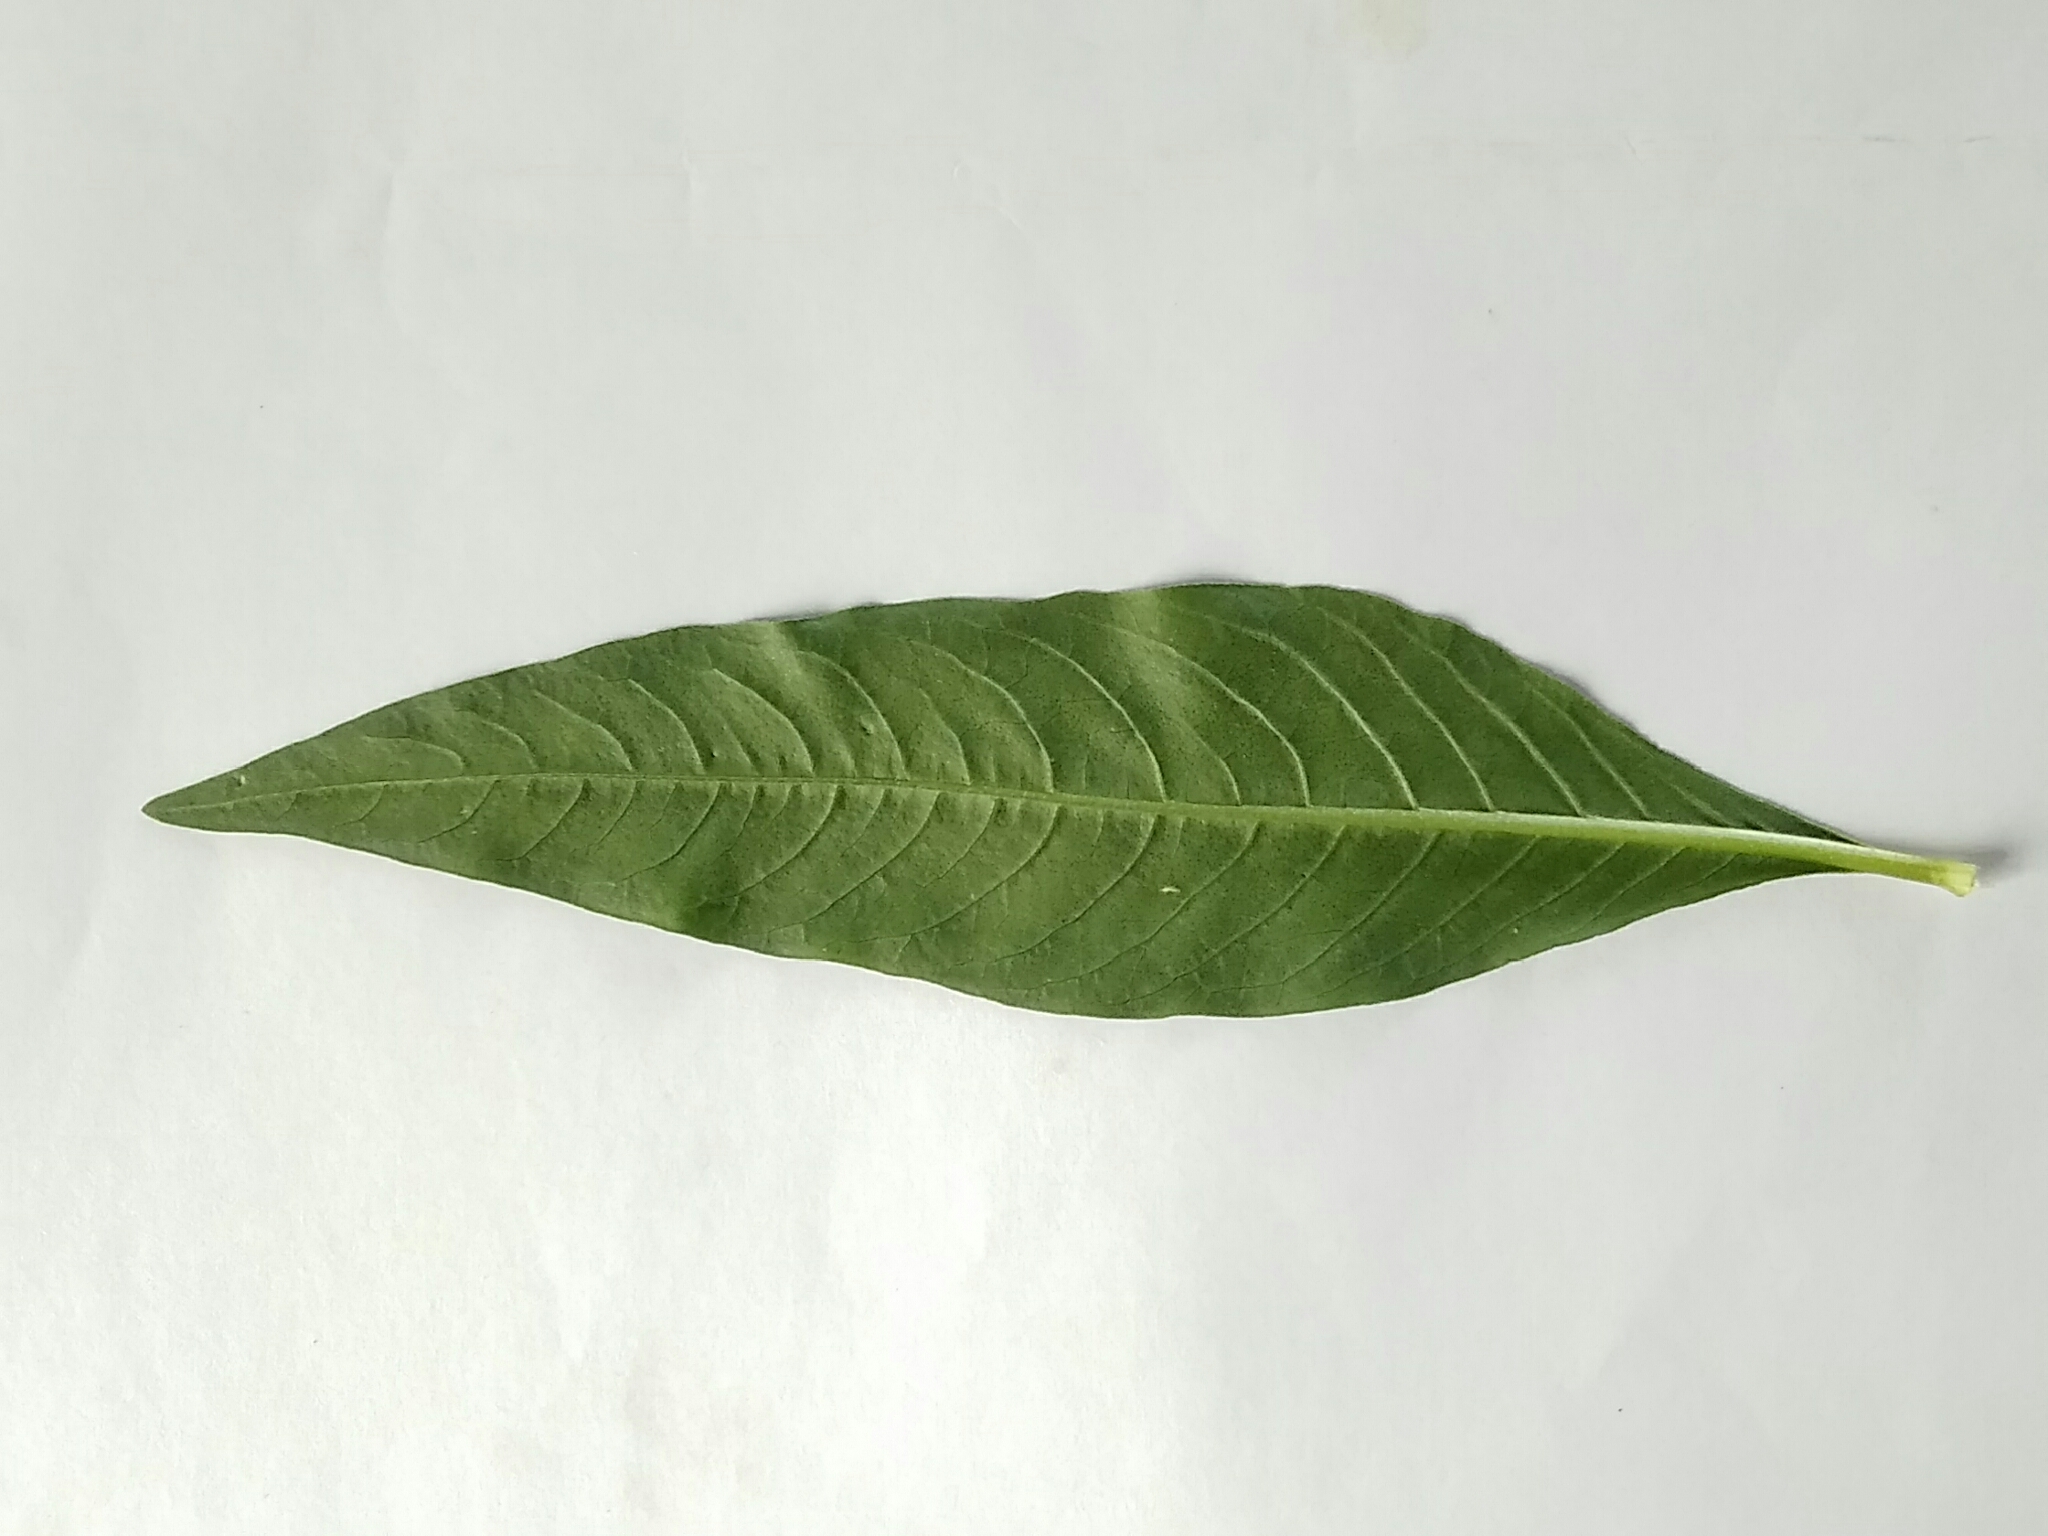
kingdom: Plantae
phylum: Tracheophyta
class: Magnoliopsida
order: Caryophyllales
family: Polygonaceae
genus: Persicaria
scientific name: Persicaria lapathifolia
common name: Curlytop knotweed
